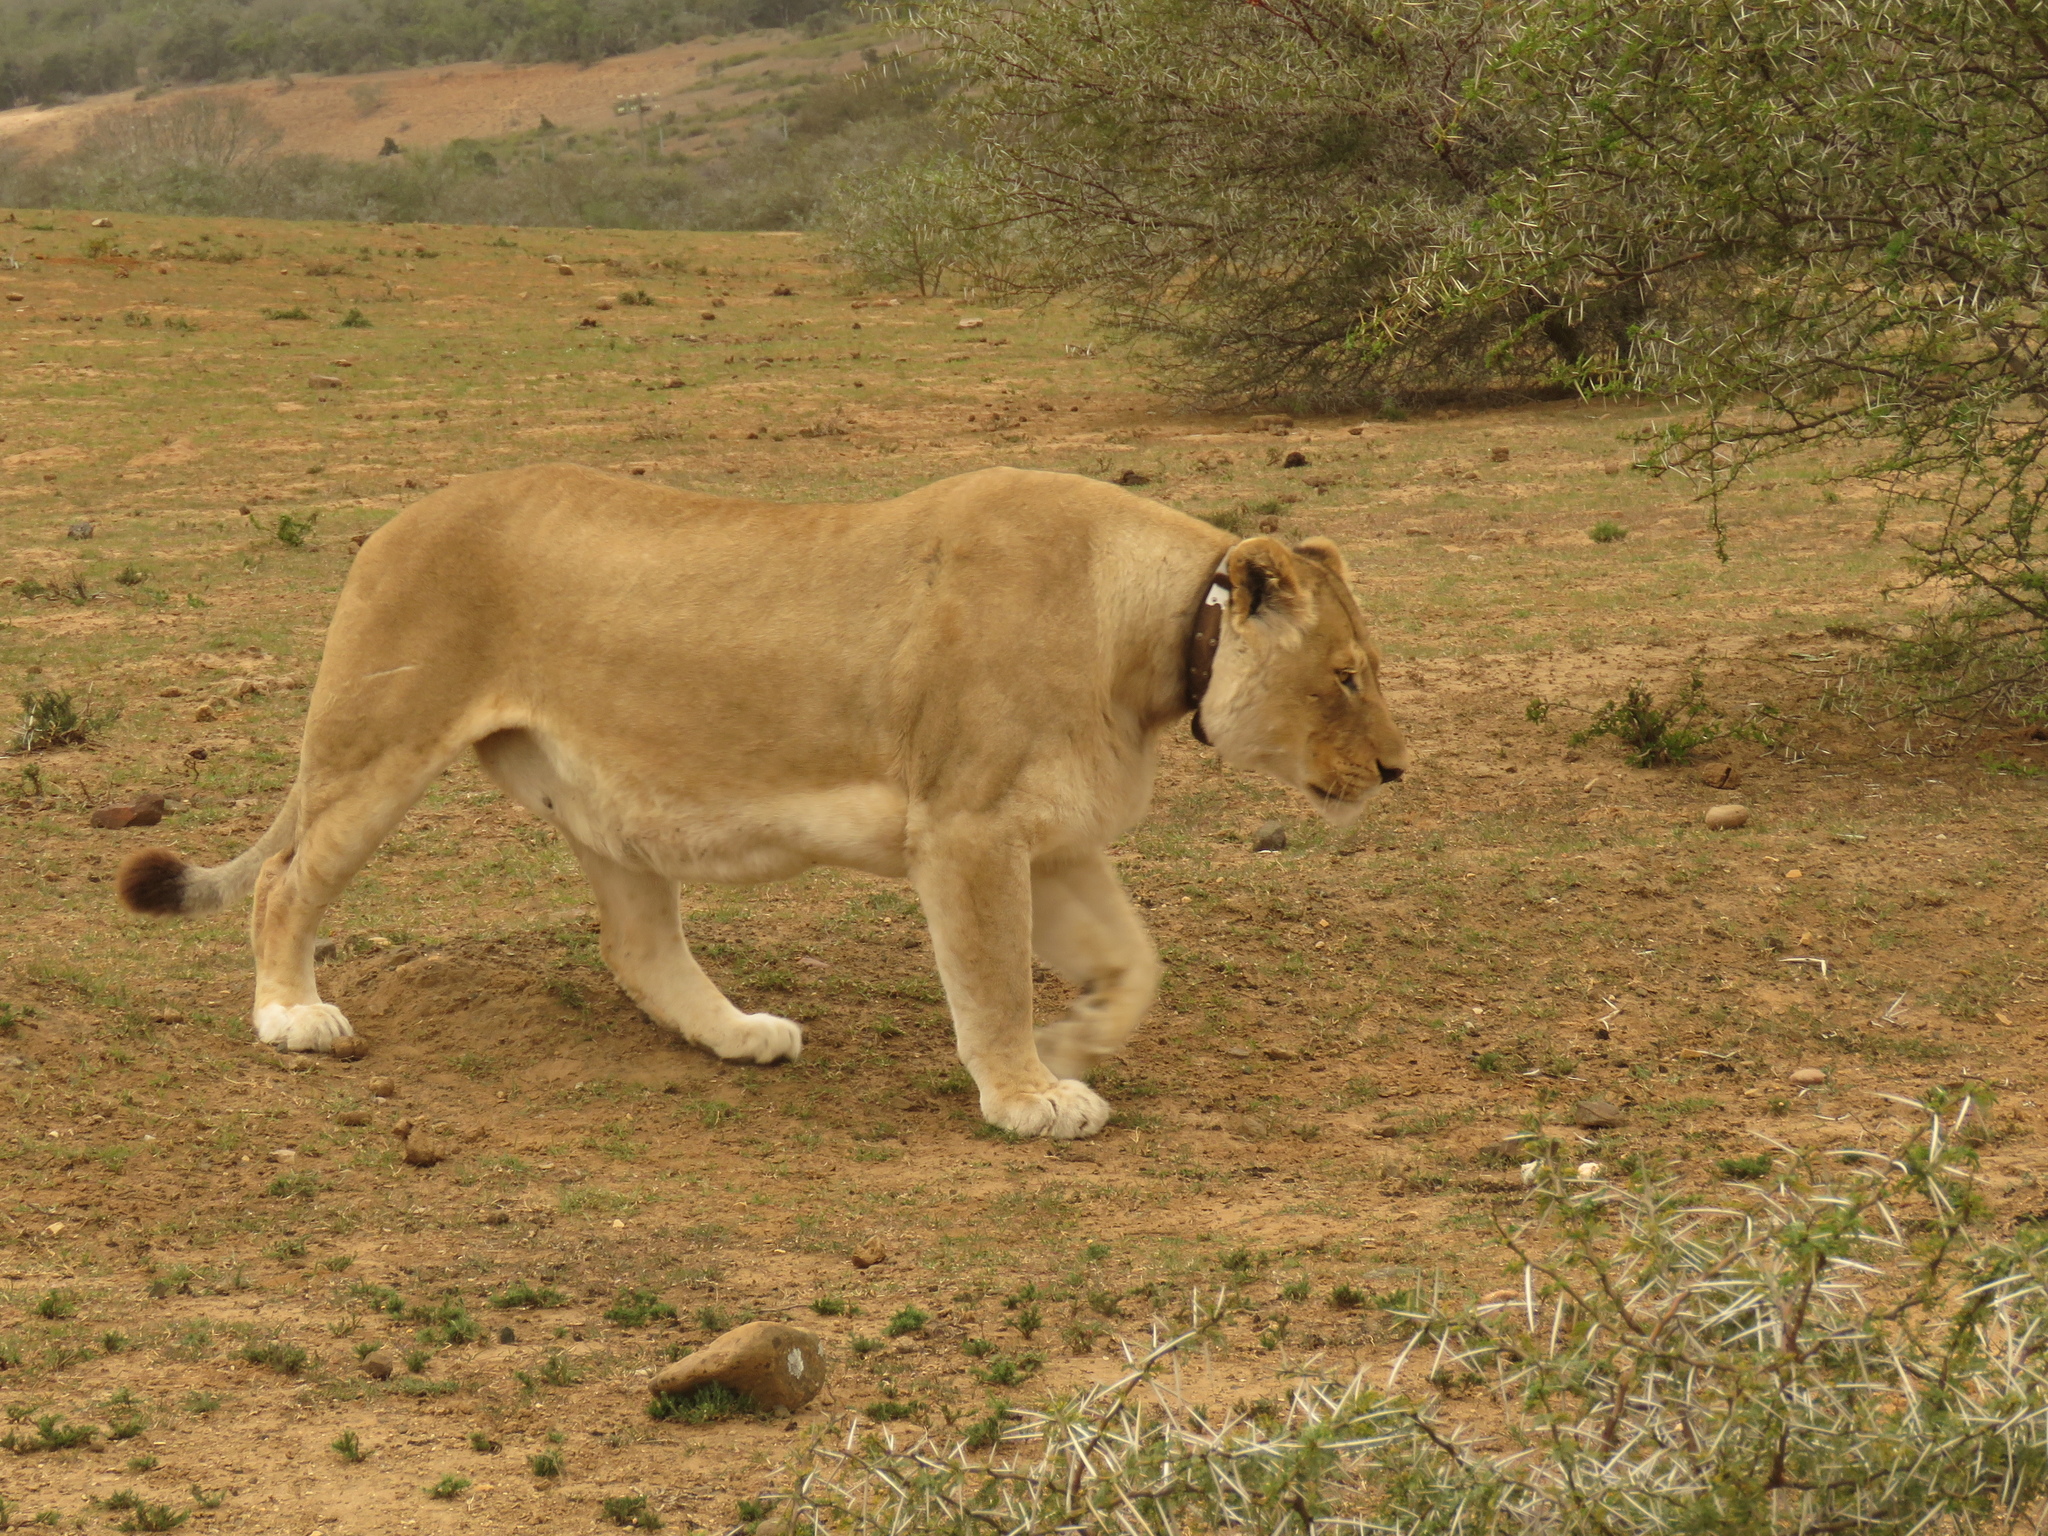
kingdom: Animalia
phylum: Chordata
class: Mammalia
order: Carnivora
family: Felidae
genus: Panthera
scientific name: Panthera leo
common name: Lion
